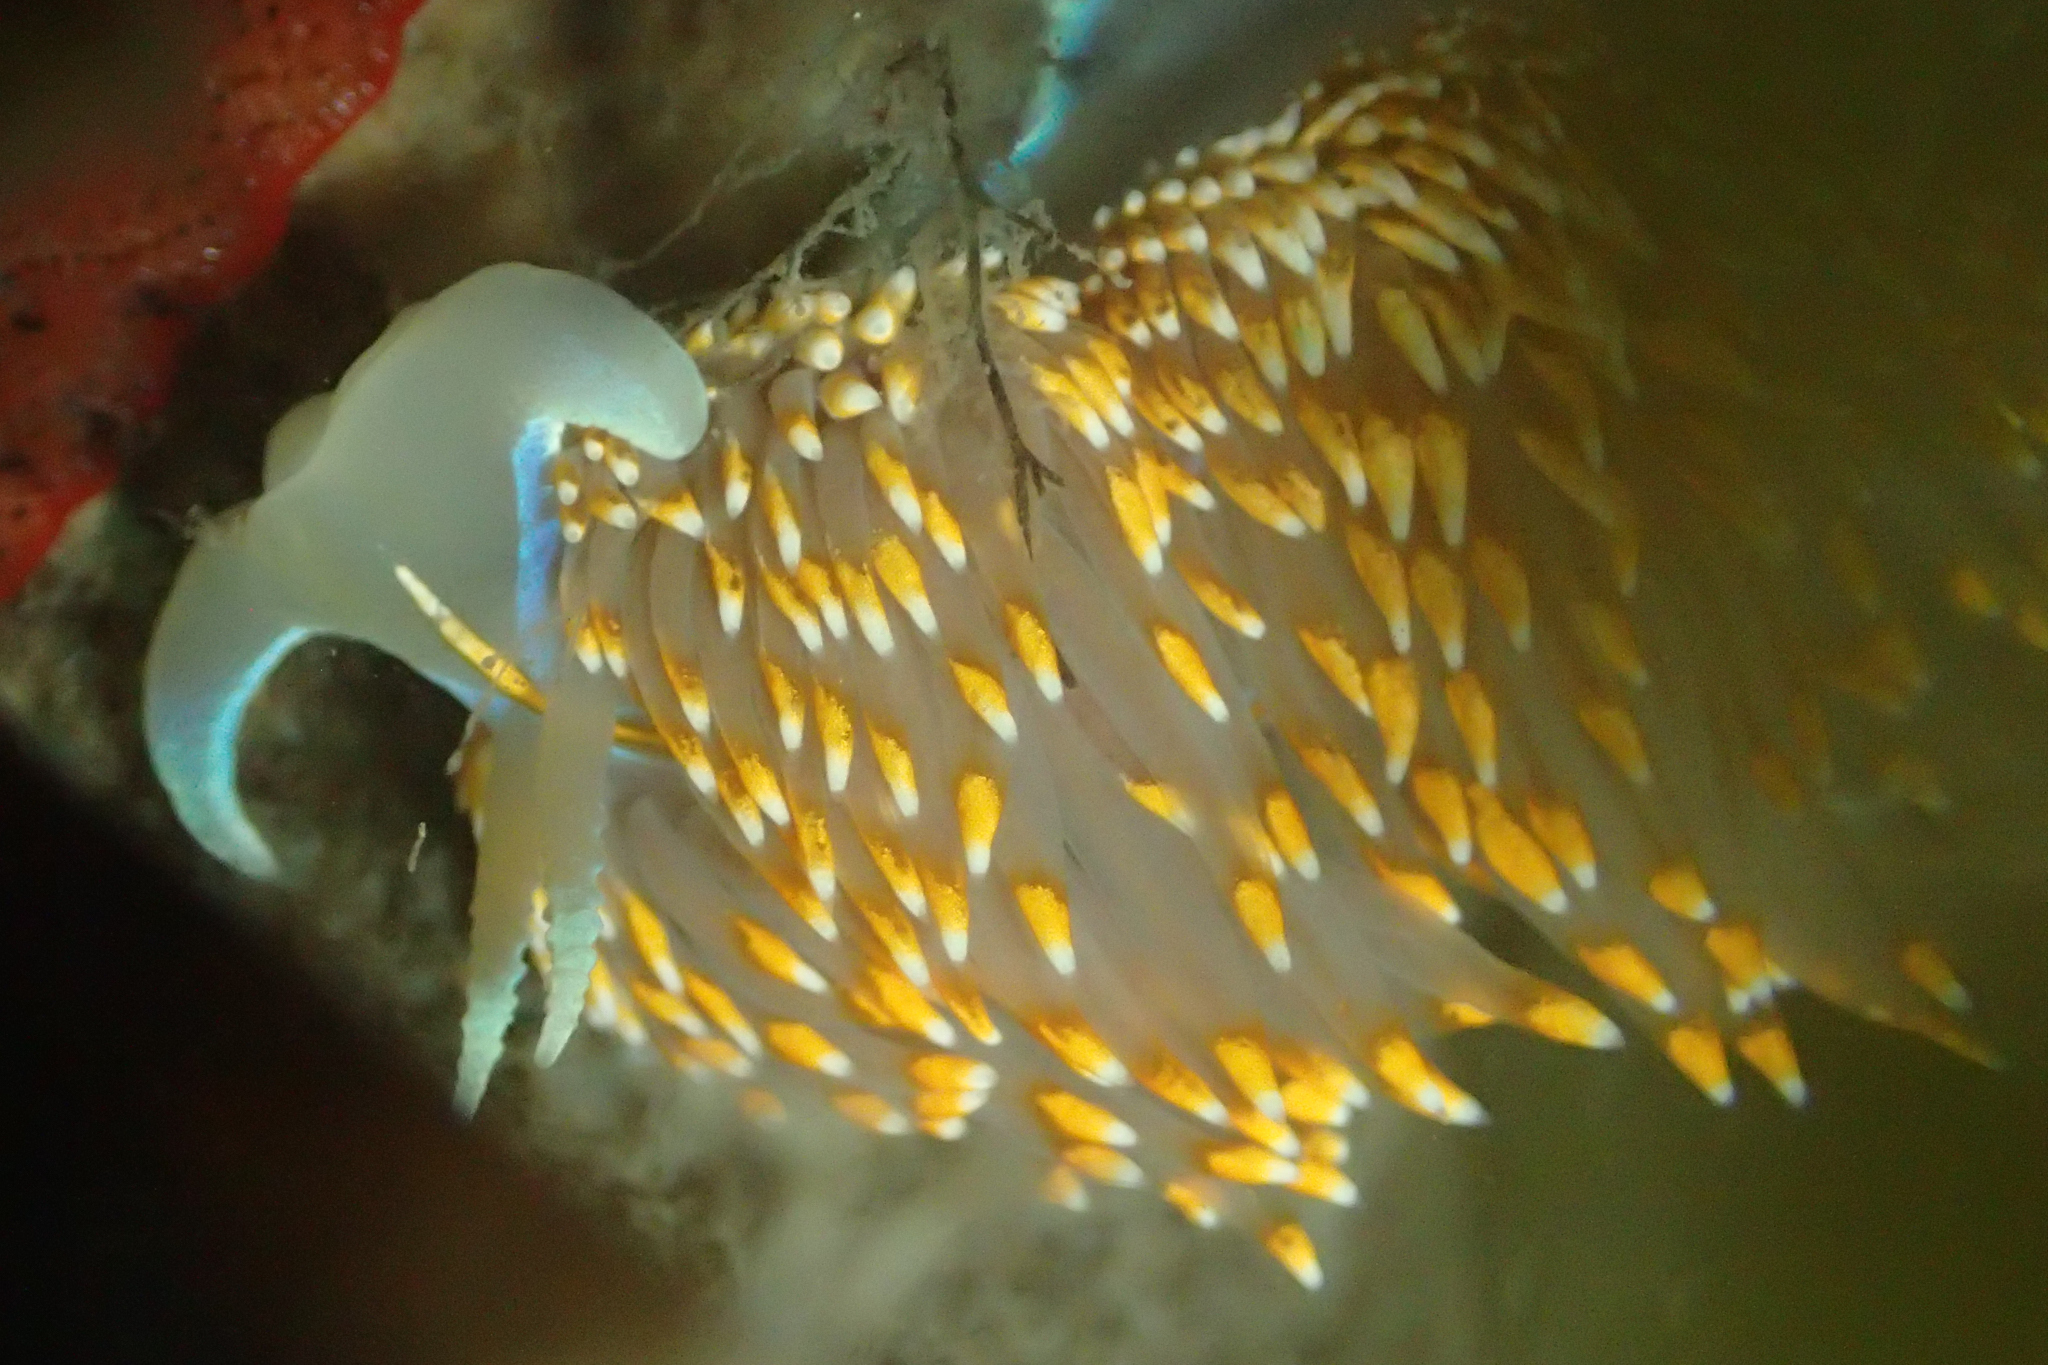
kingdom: Animalia
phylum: Mollusca
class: Gastropoda
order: Nudibranchia
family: Myrrhinidae
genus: Hermissenda
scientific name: Hermissenda opalescens
